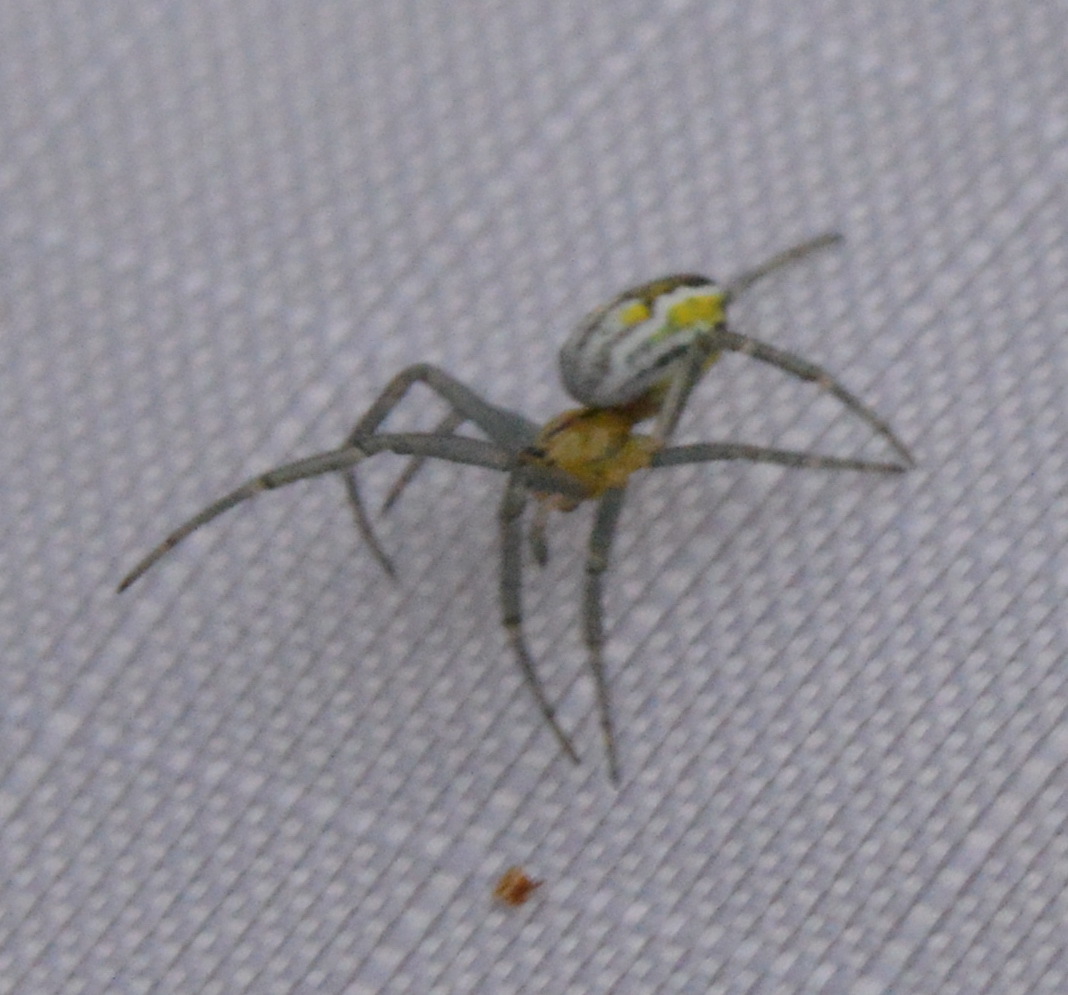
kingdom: Animalia
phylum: Arthropoda
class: Arachnida
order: Araneae
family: Araneidae
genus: Mecynogea
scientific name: Mecynogea lemniscata
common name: Orb weavers
